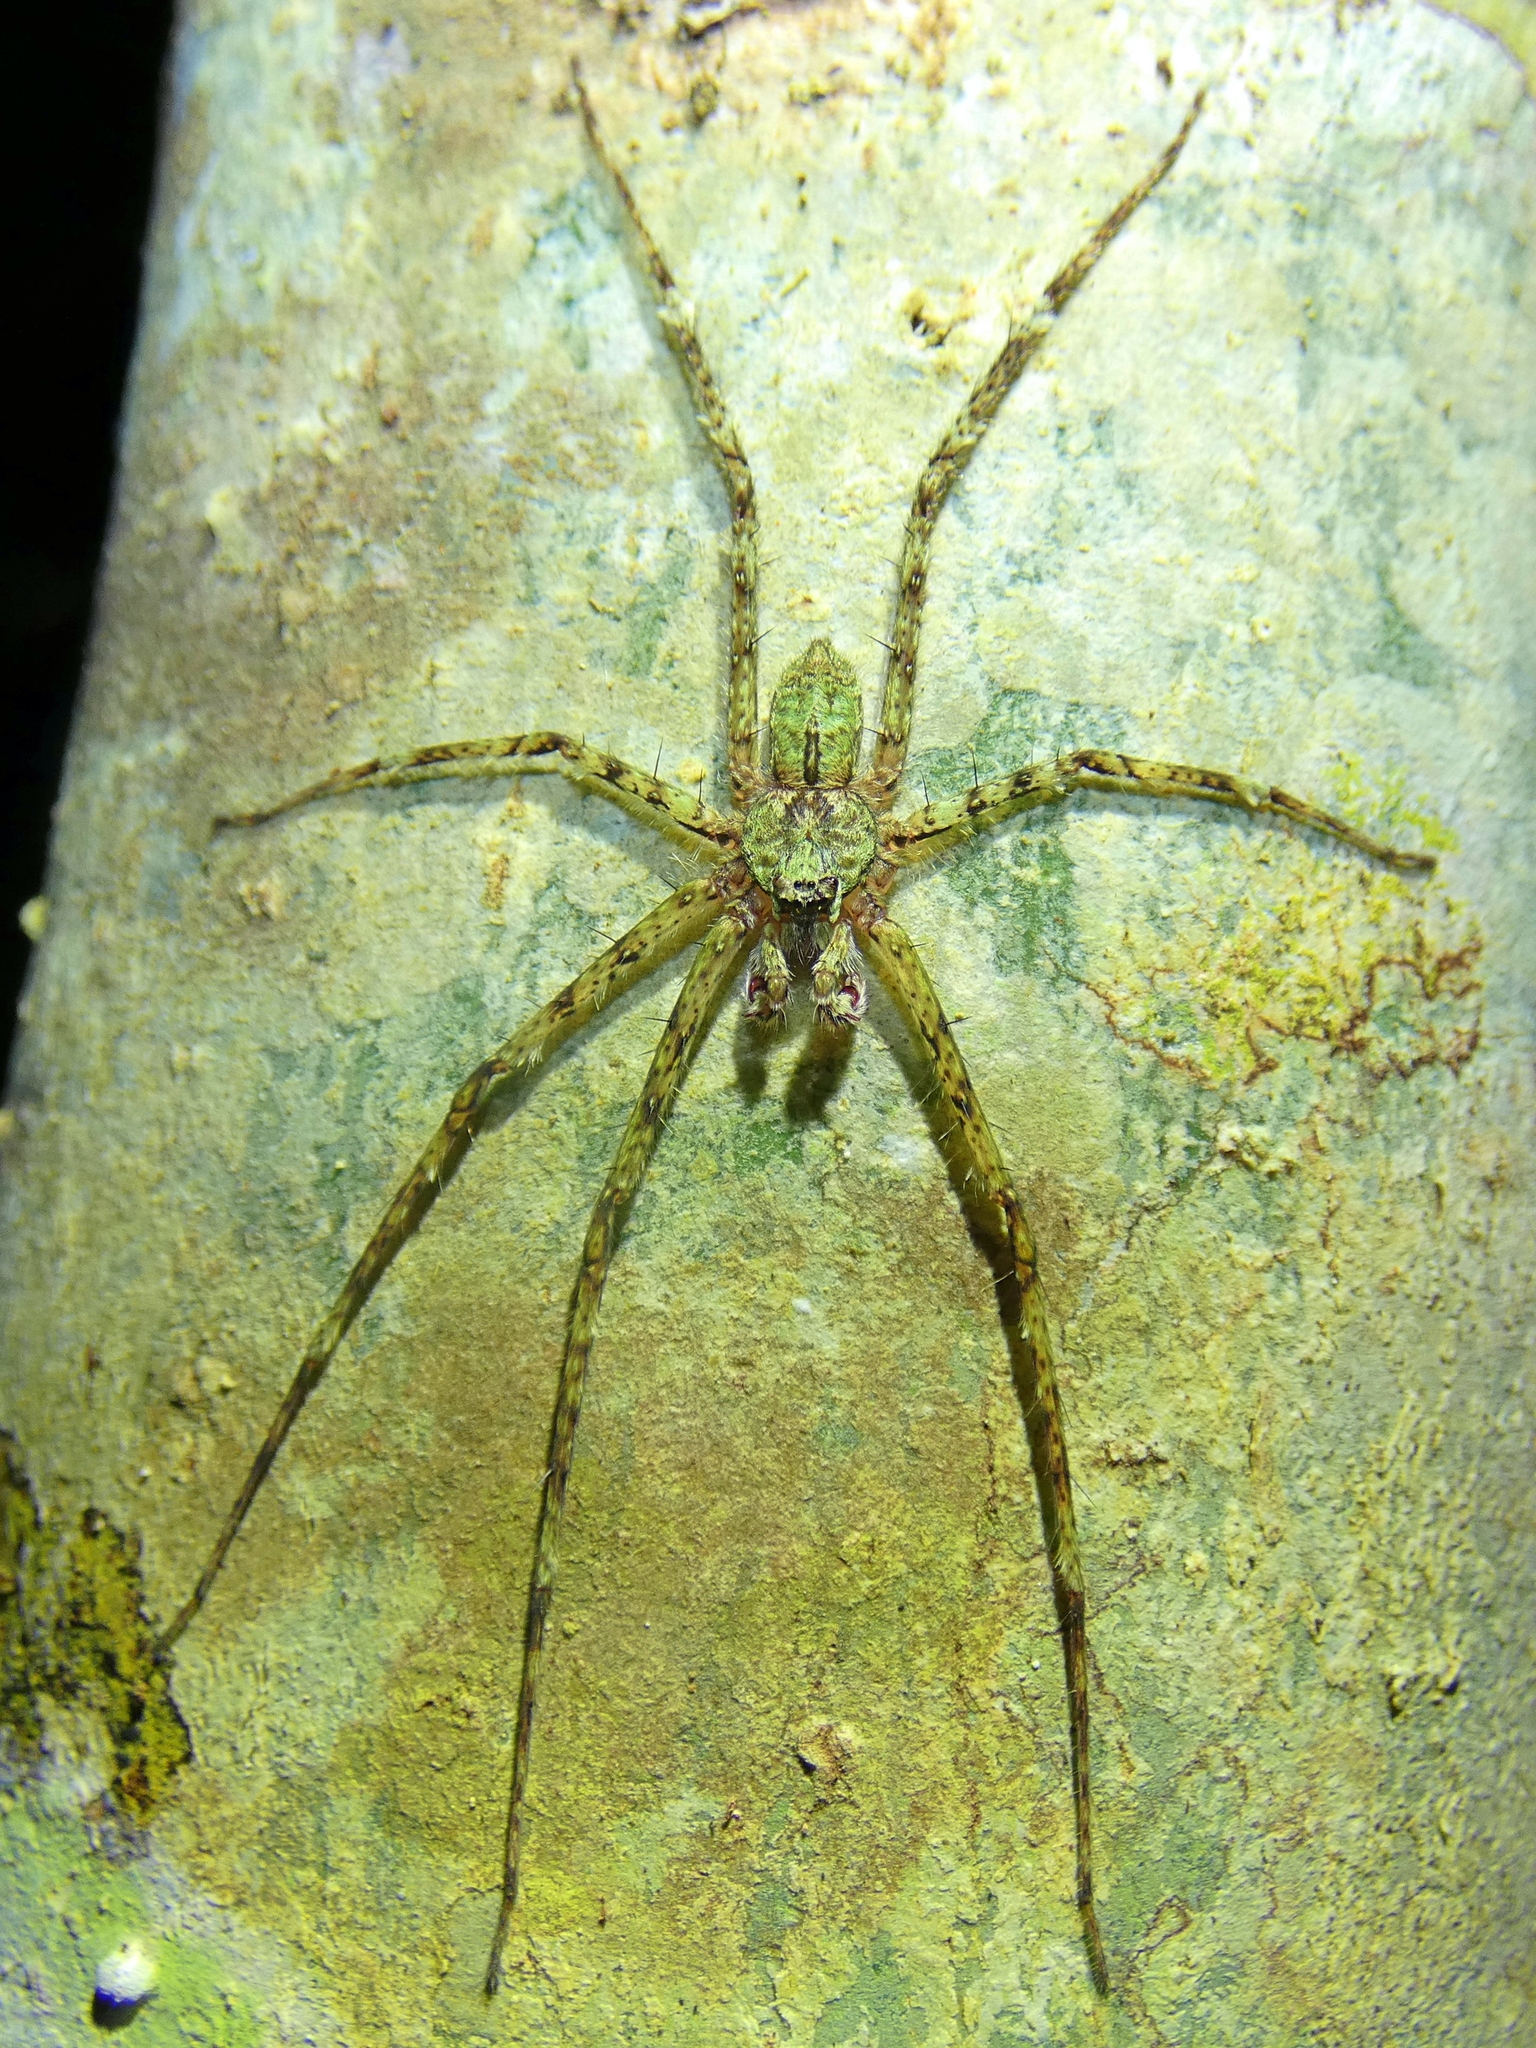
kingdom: Animalia
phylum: Arthropoda
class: Arachnida
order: Araneae
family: Sparassidae
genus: Pandercetes
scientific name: Pandercetes gracilis
